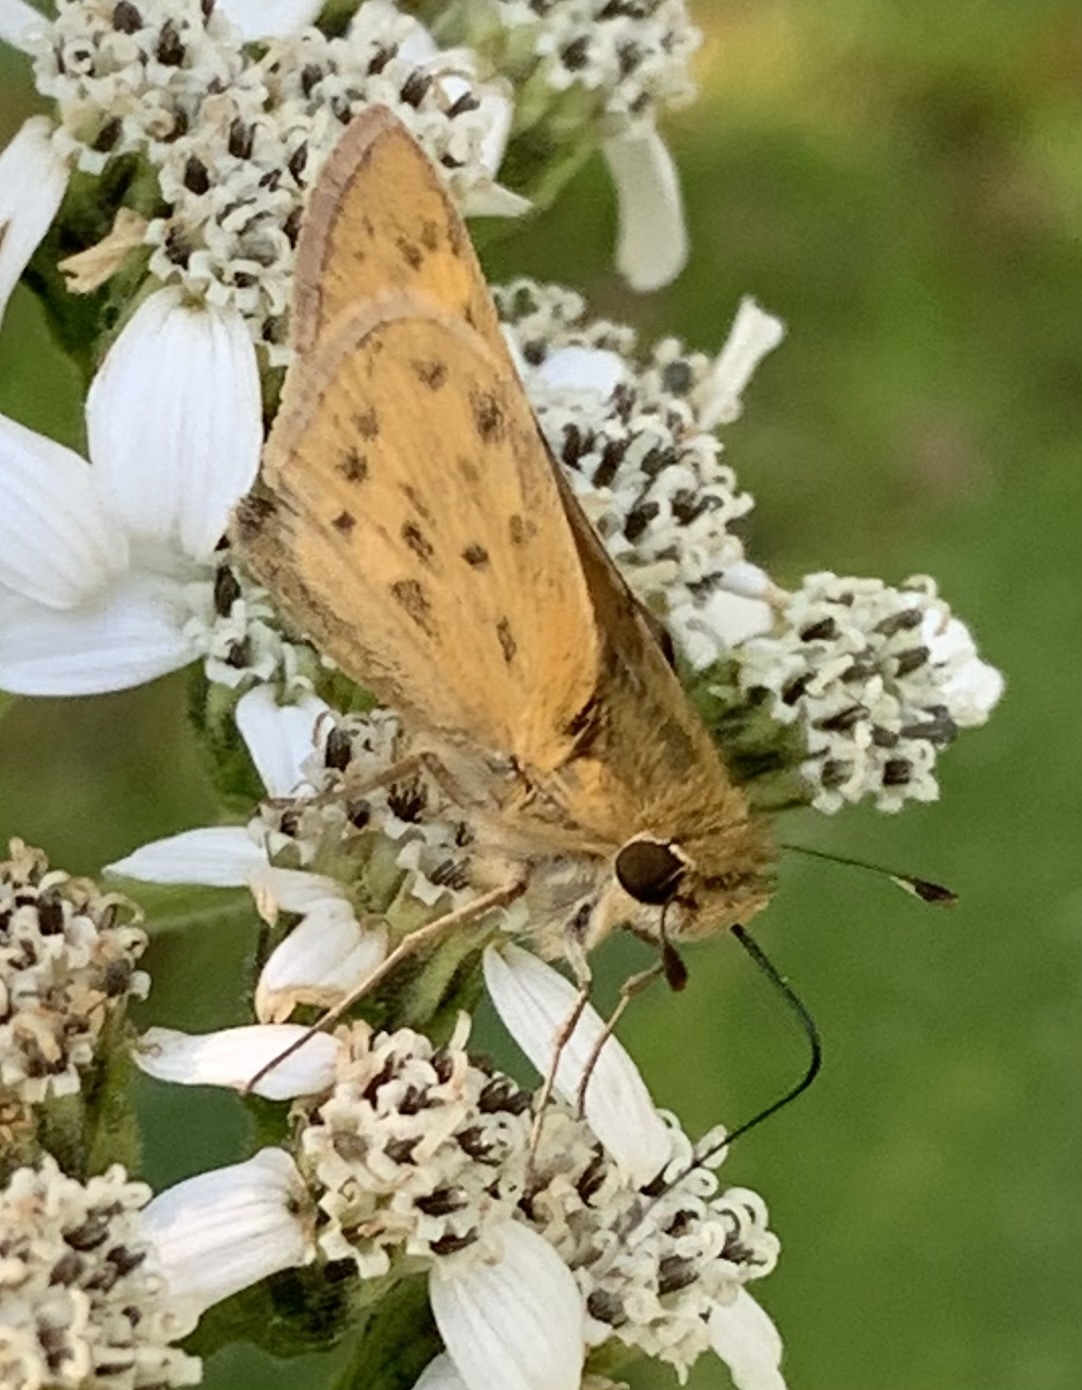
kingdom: Animalia
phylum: Arthropoda
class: Insecta
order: Lepidoptera
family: Hesperiidae
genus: Hylephila
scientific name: Hylephila phyleus
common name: Fiery skipper
